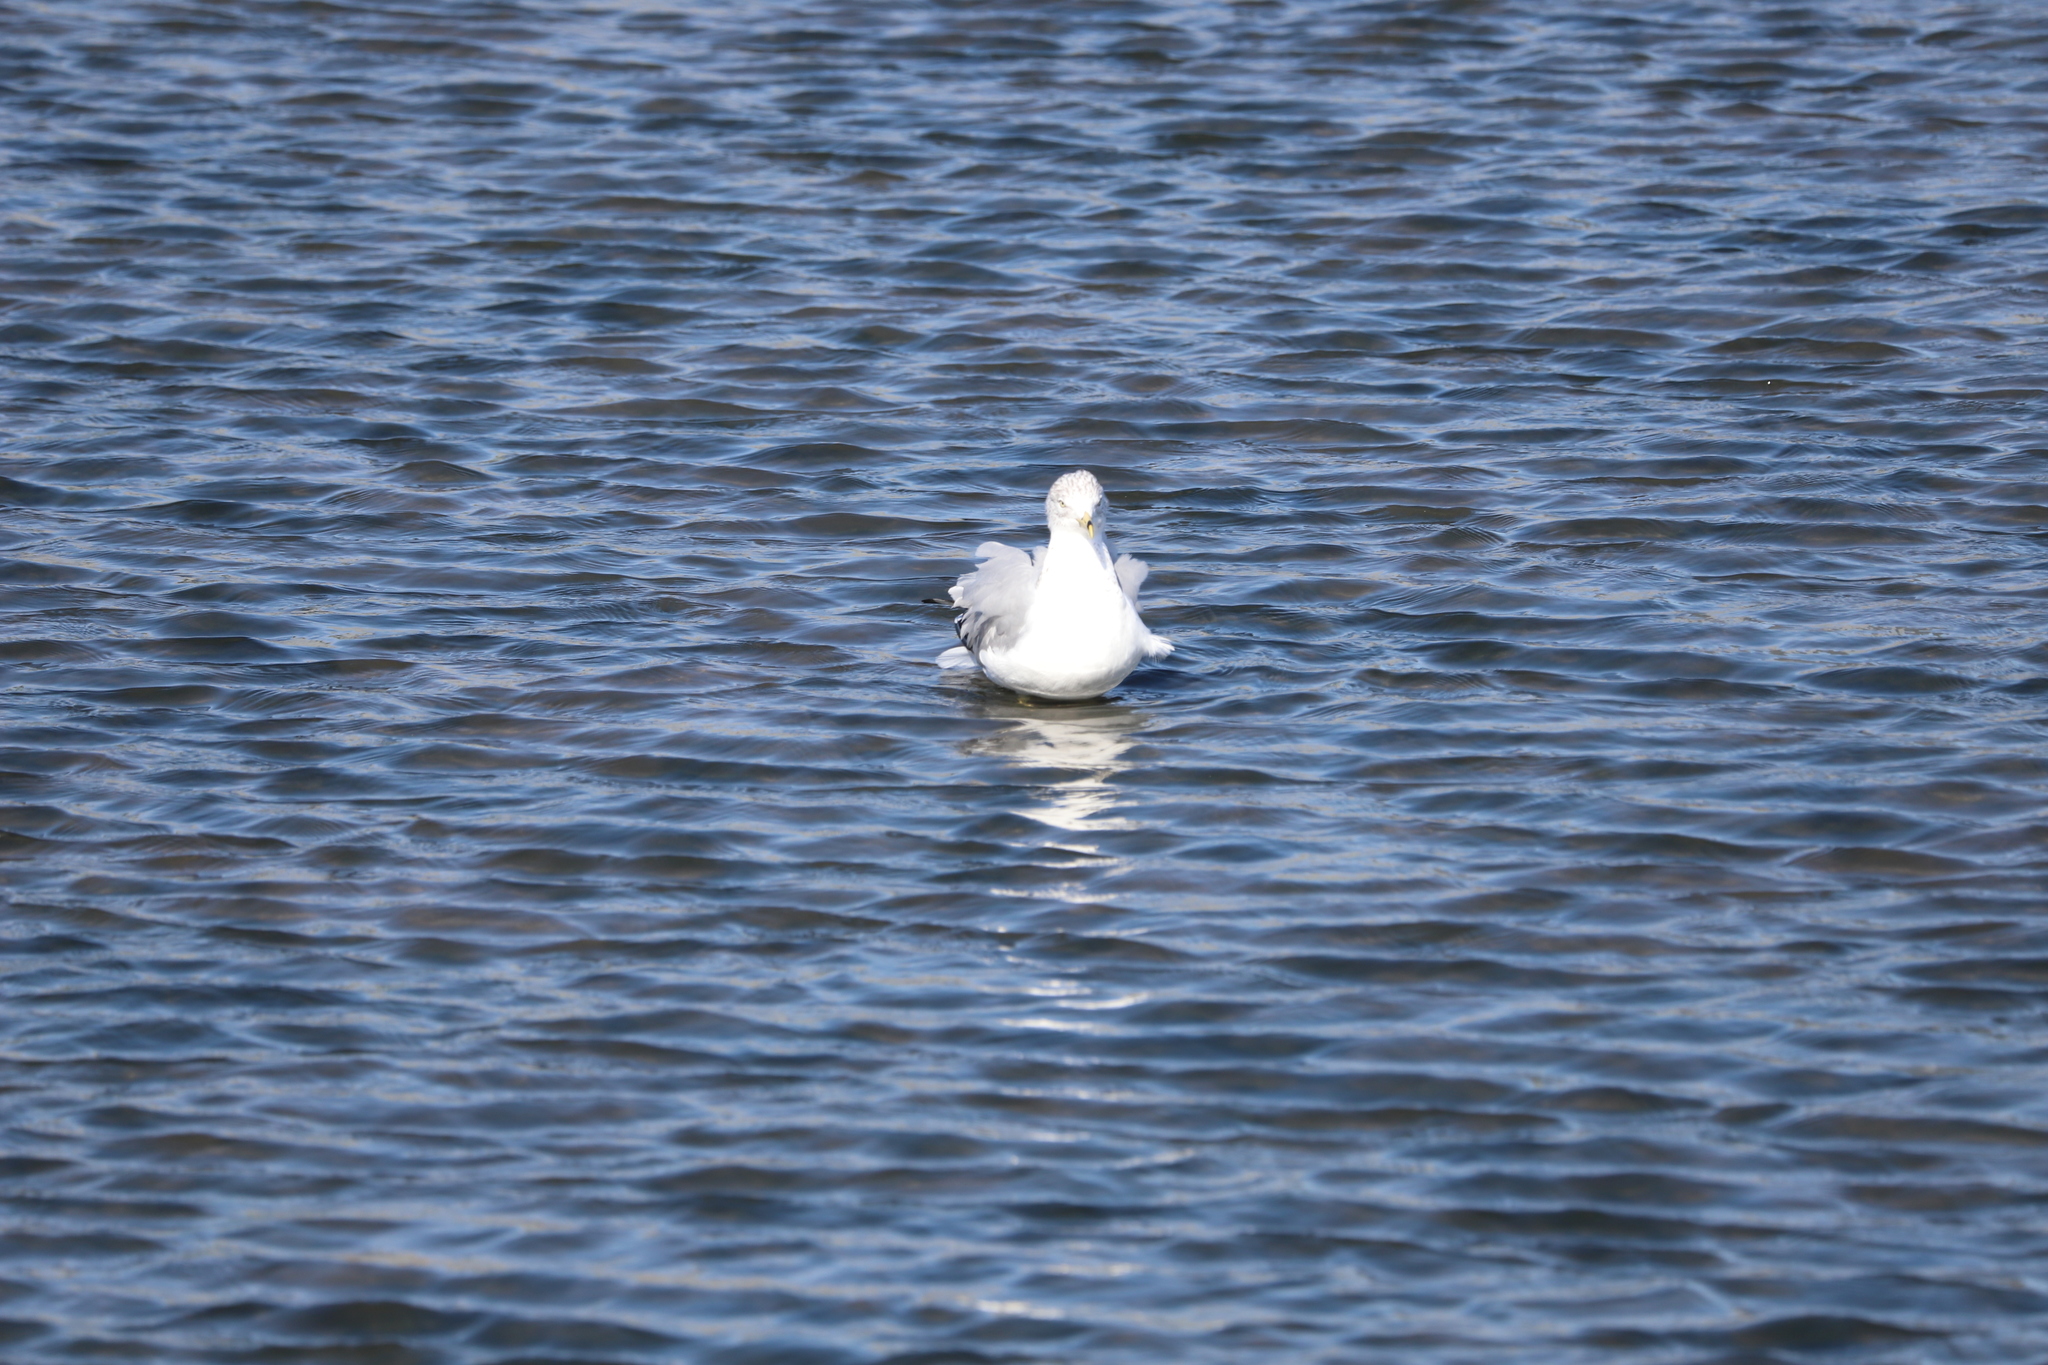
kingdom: Animalia
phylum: Chordata
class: Aves
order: Charadriiformes
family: Laridae
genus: Larus
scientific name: Larus delawarensis
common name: Ring-billed gull
